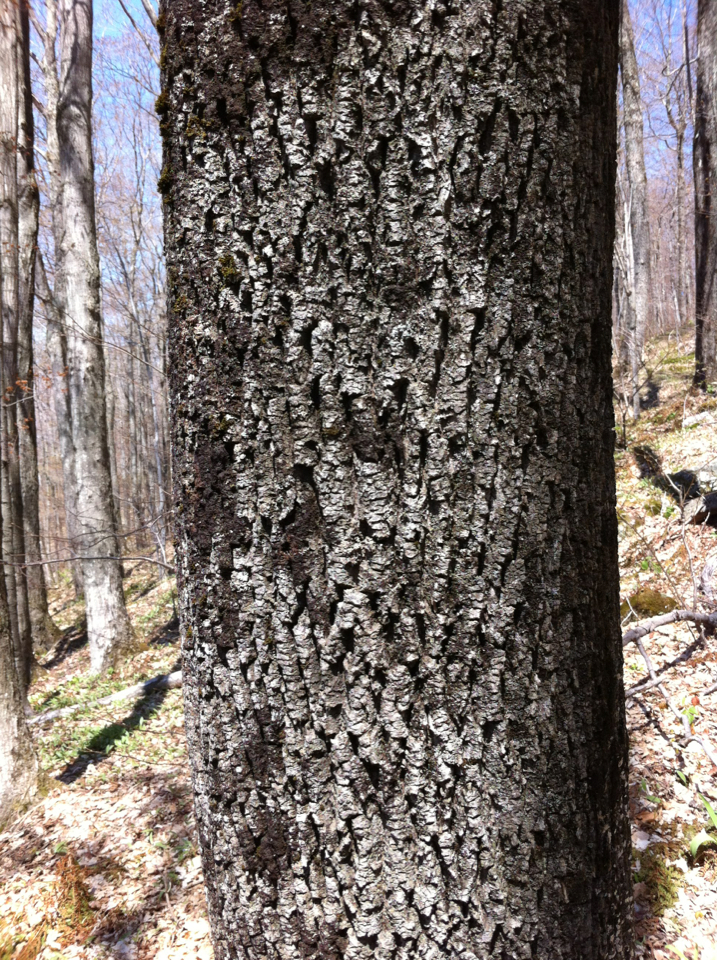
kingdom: Plantae
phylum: Tracheophyta
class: Magnoliopsida
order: Lamiales
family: Oleaceae
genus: Fraxinus
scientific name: Fraxinus americana
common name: White ash
